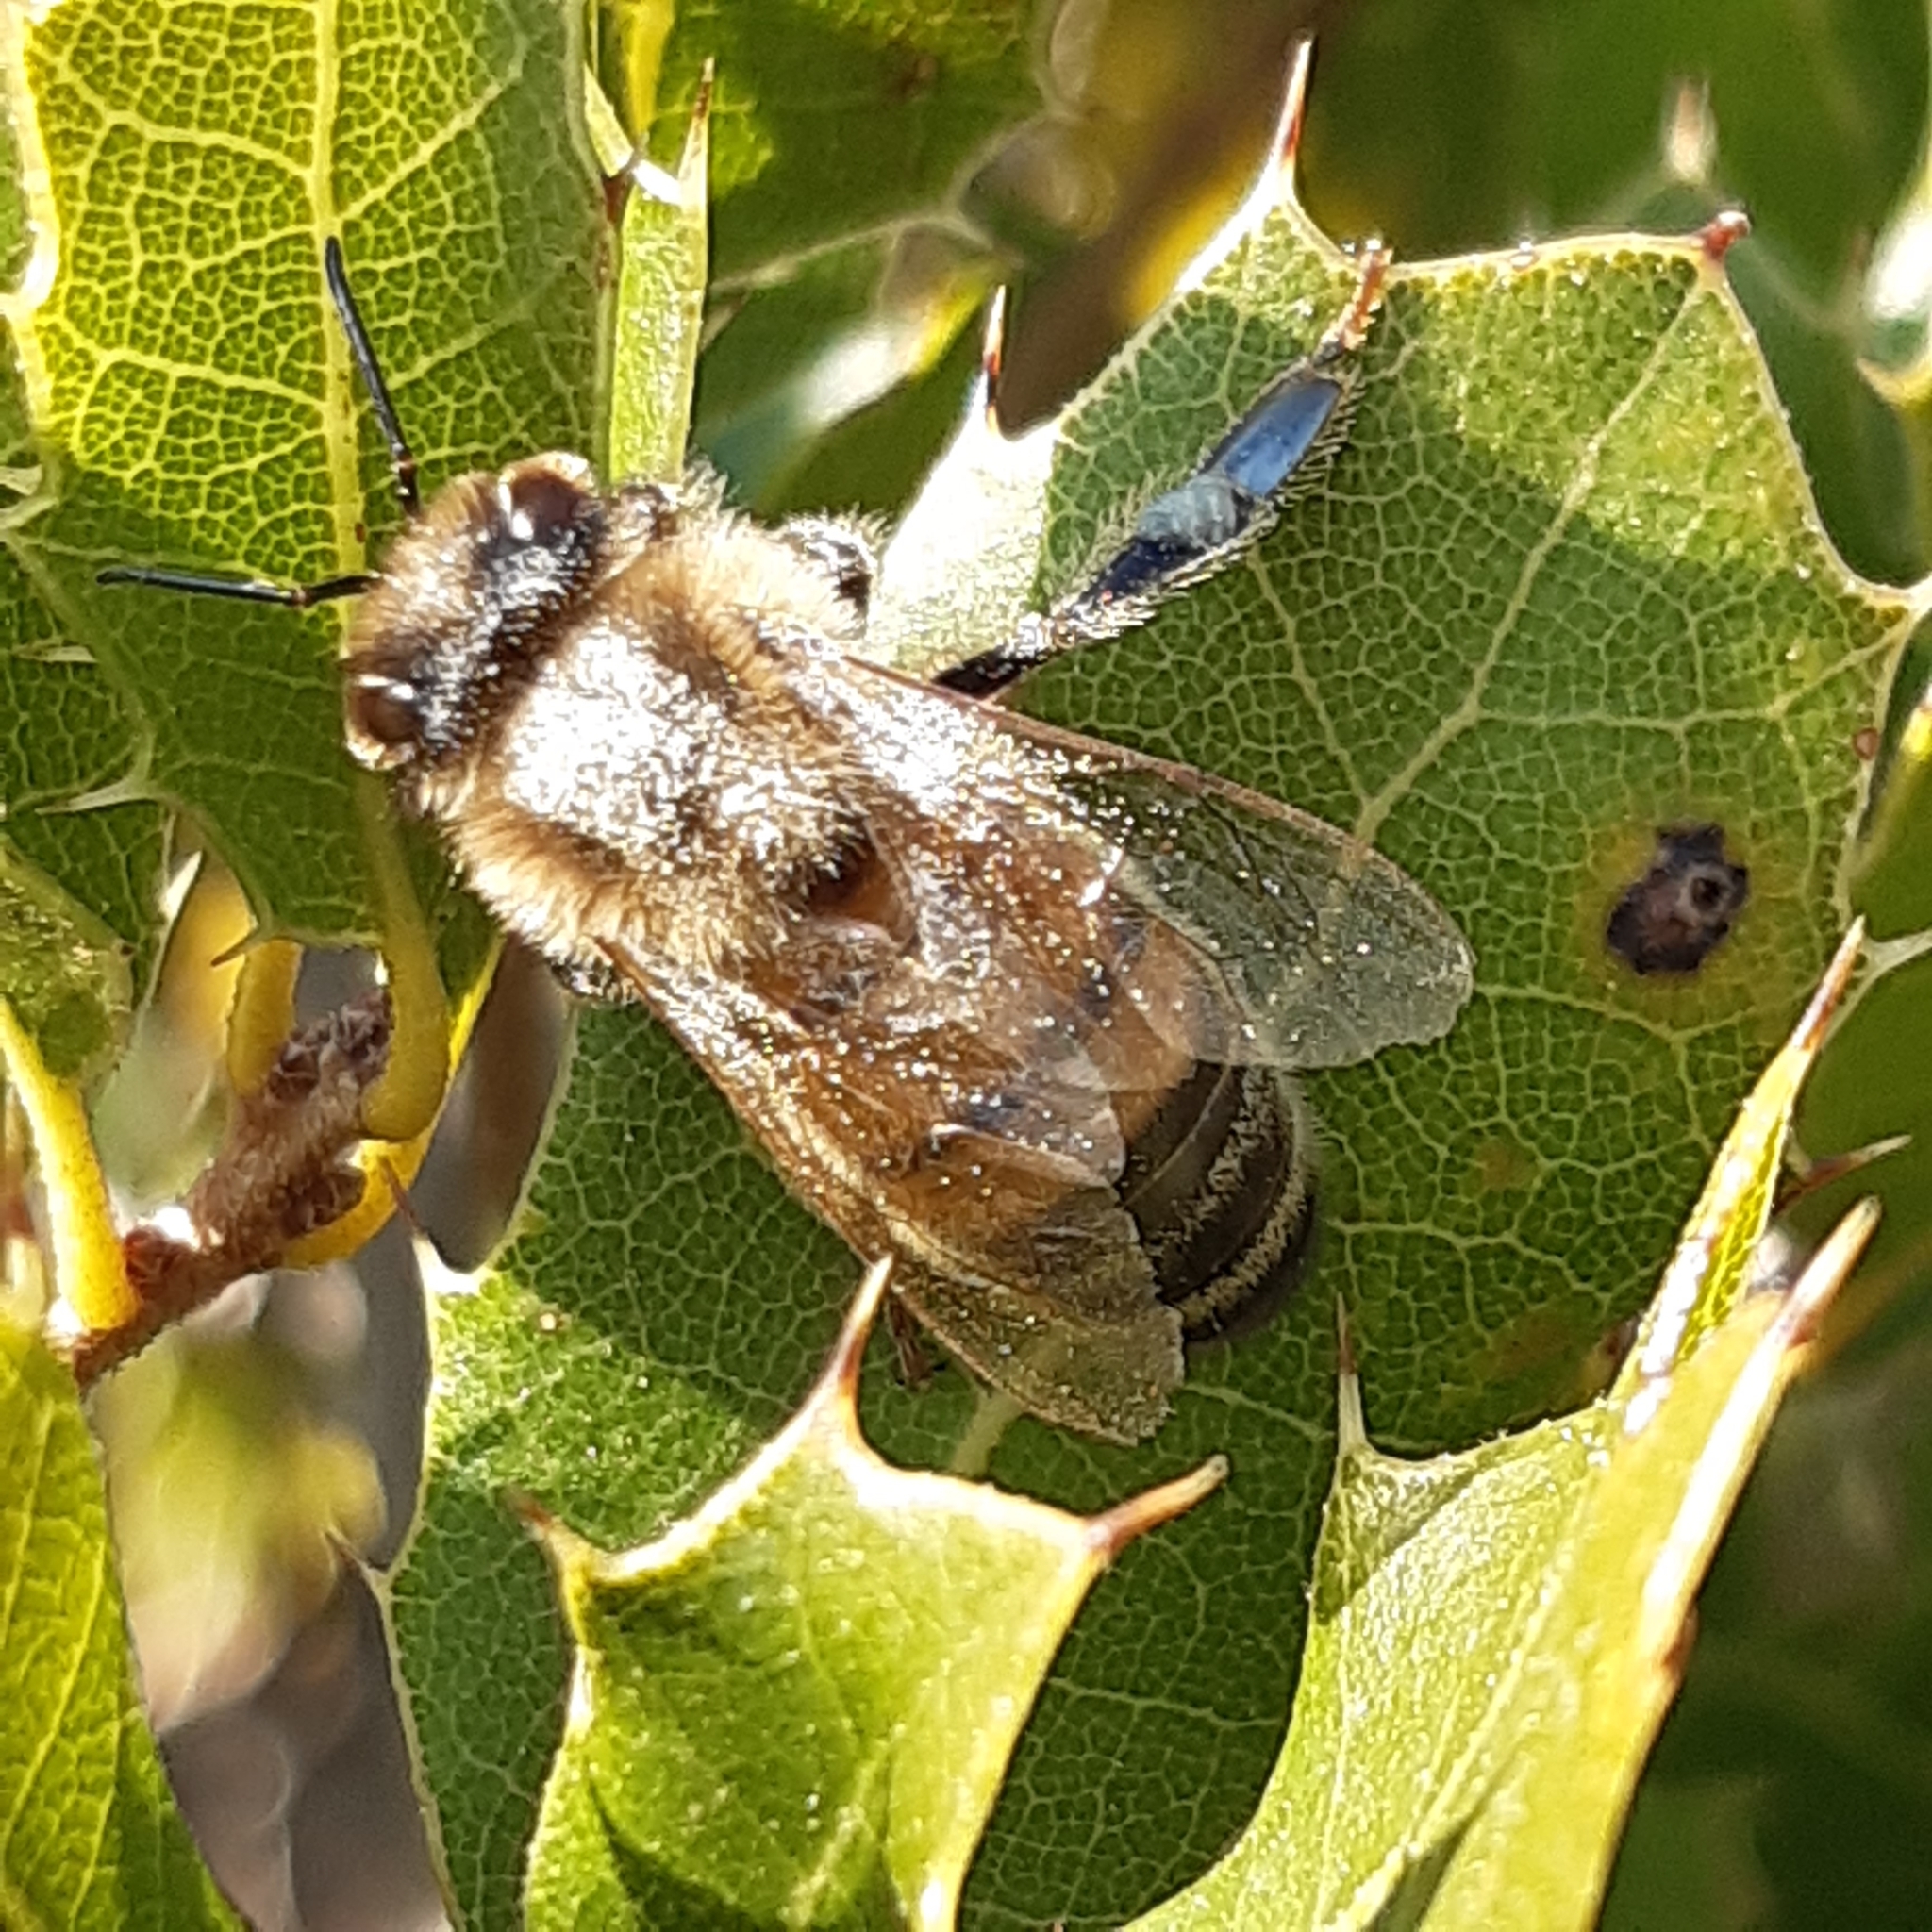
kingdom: Animalia
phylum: Arthropoda
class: Insecta
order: Hymenoptera
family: Apidae
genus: Apis
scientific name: Apis mellifera
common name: Honey bee
